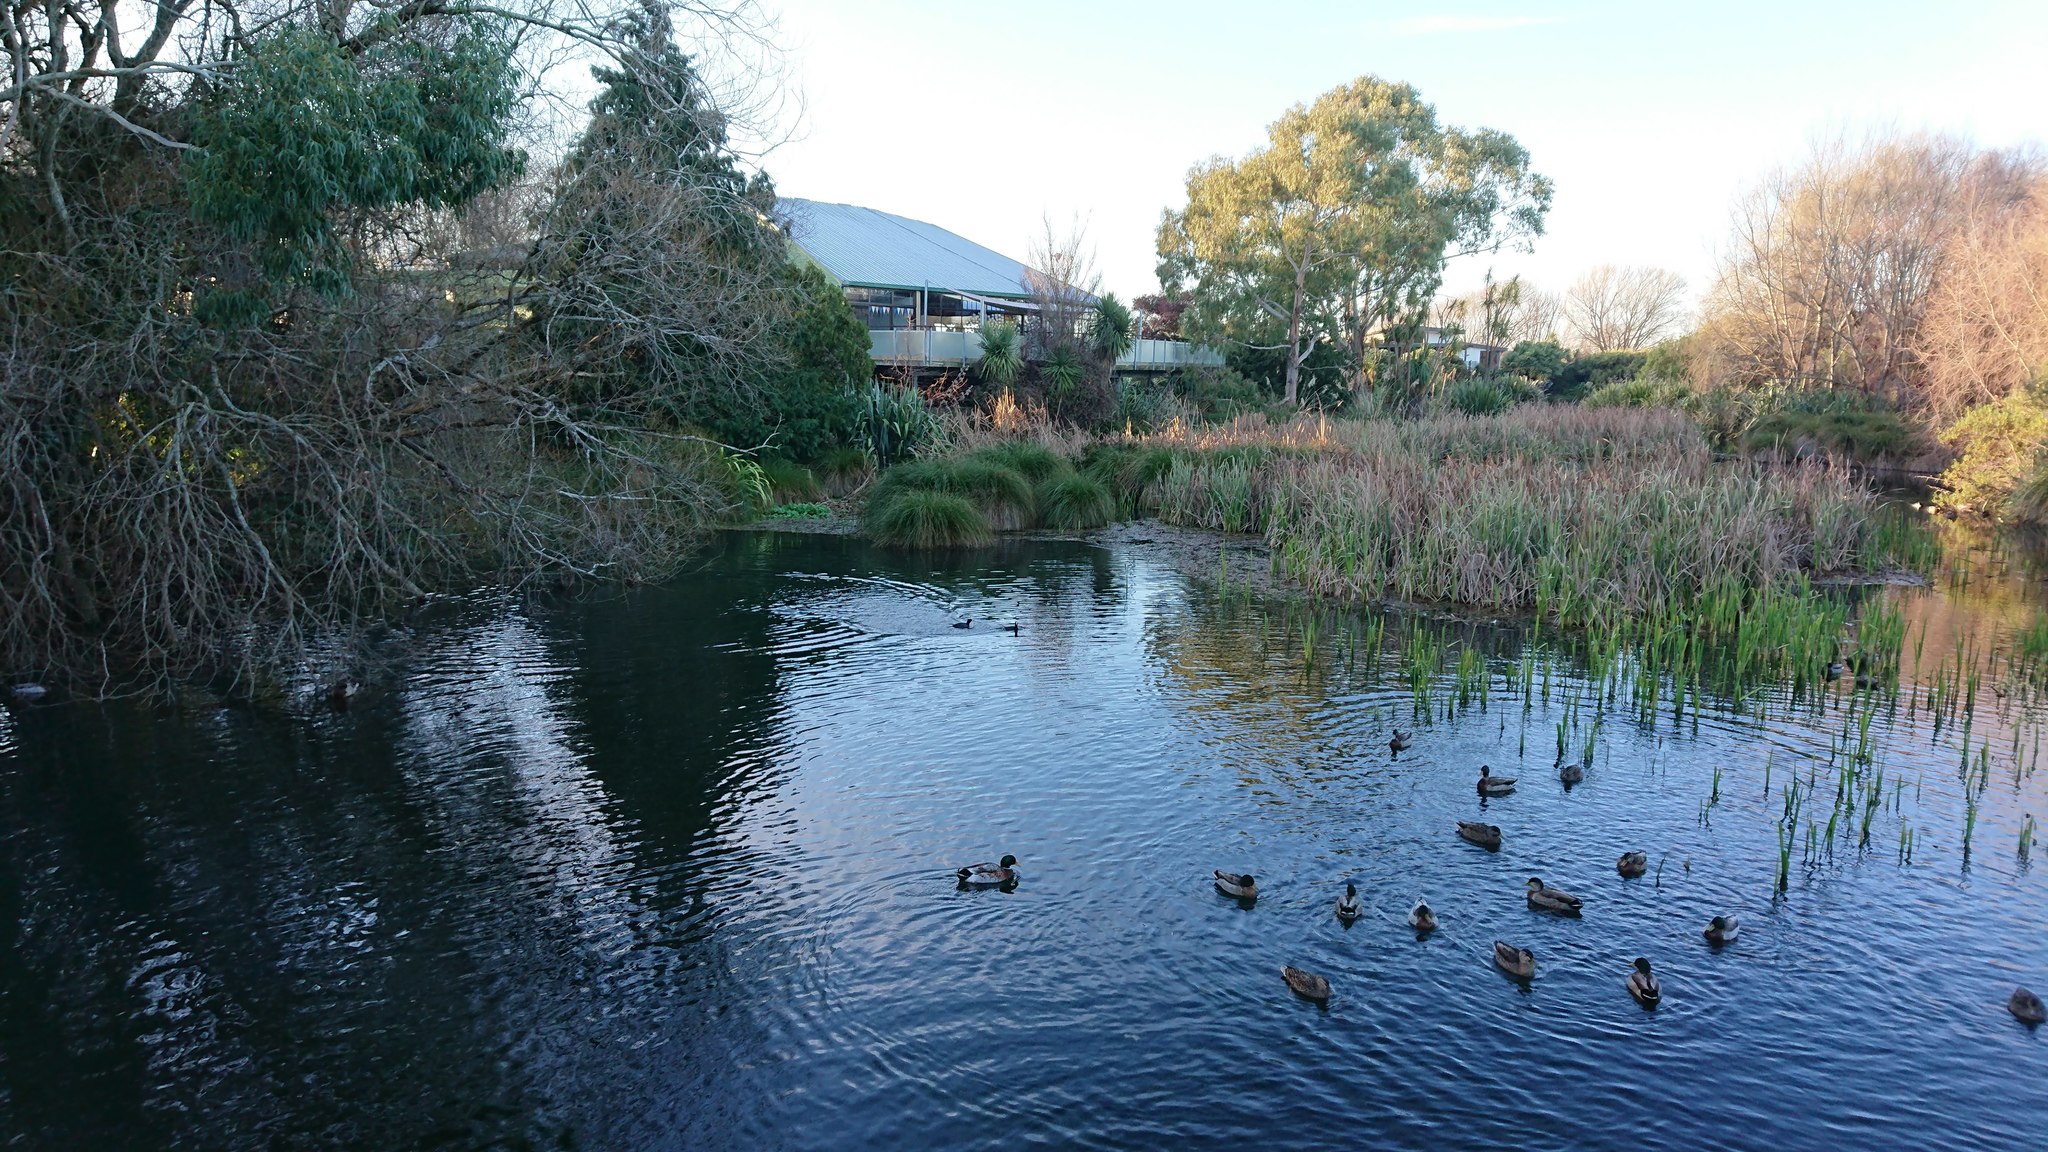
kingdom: Animalia
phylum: Chordata
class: Aves
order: Gruiformes
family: Rallidae
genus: Fulica
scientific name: Fulica atra
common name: Eurasian coot
